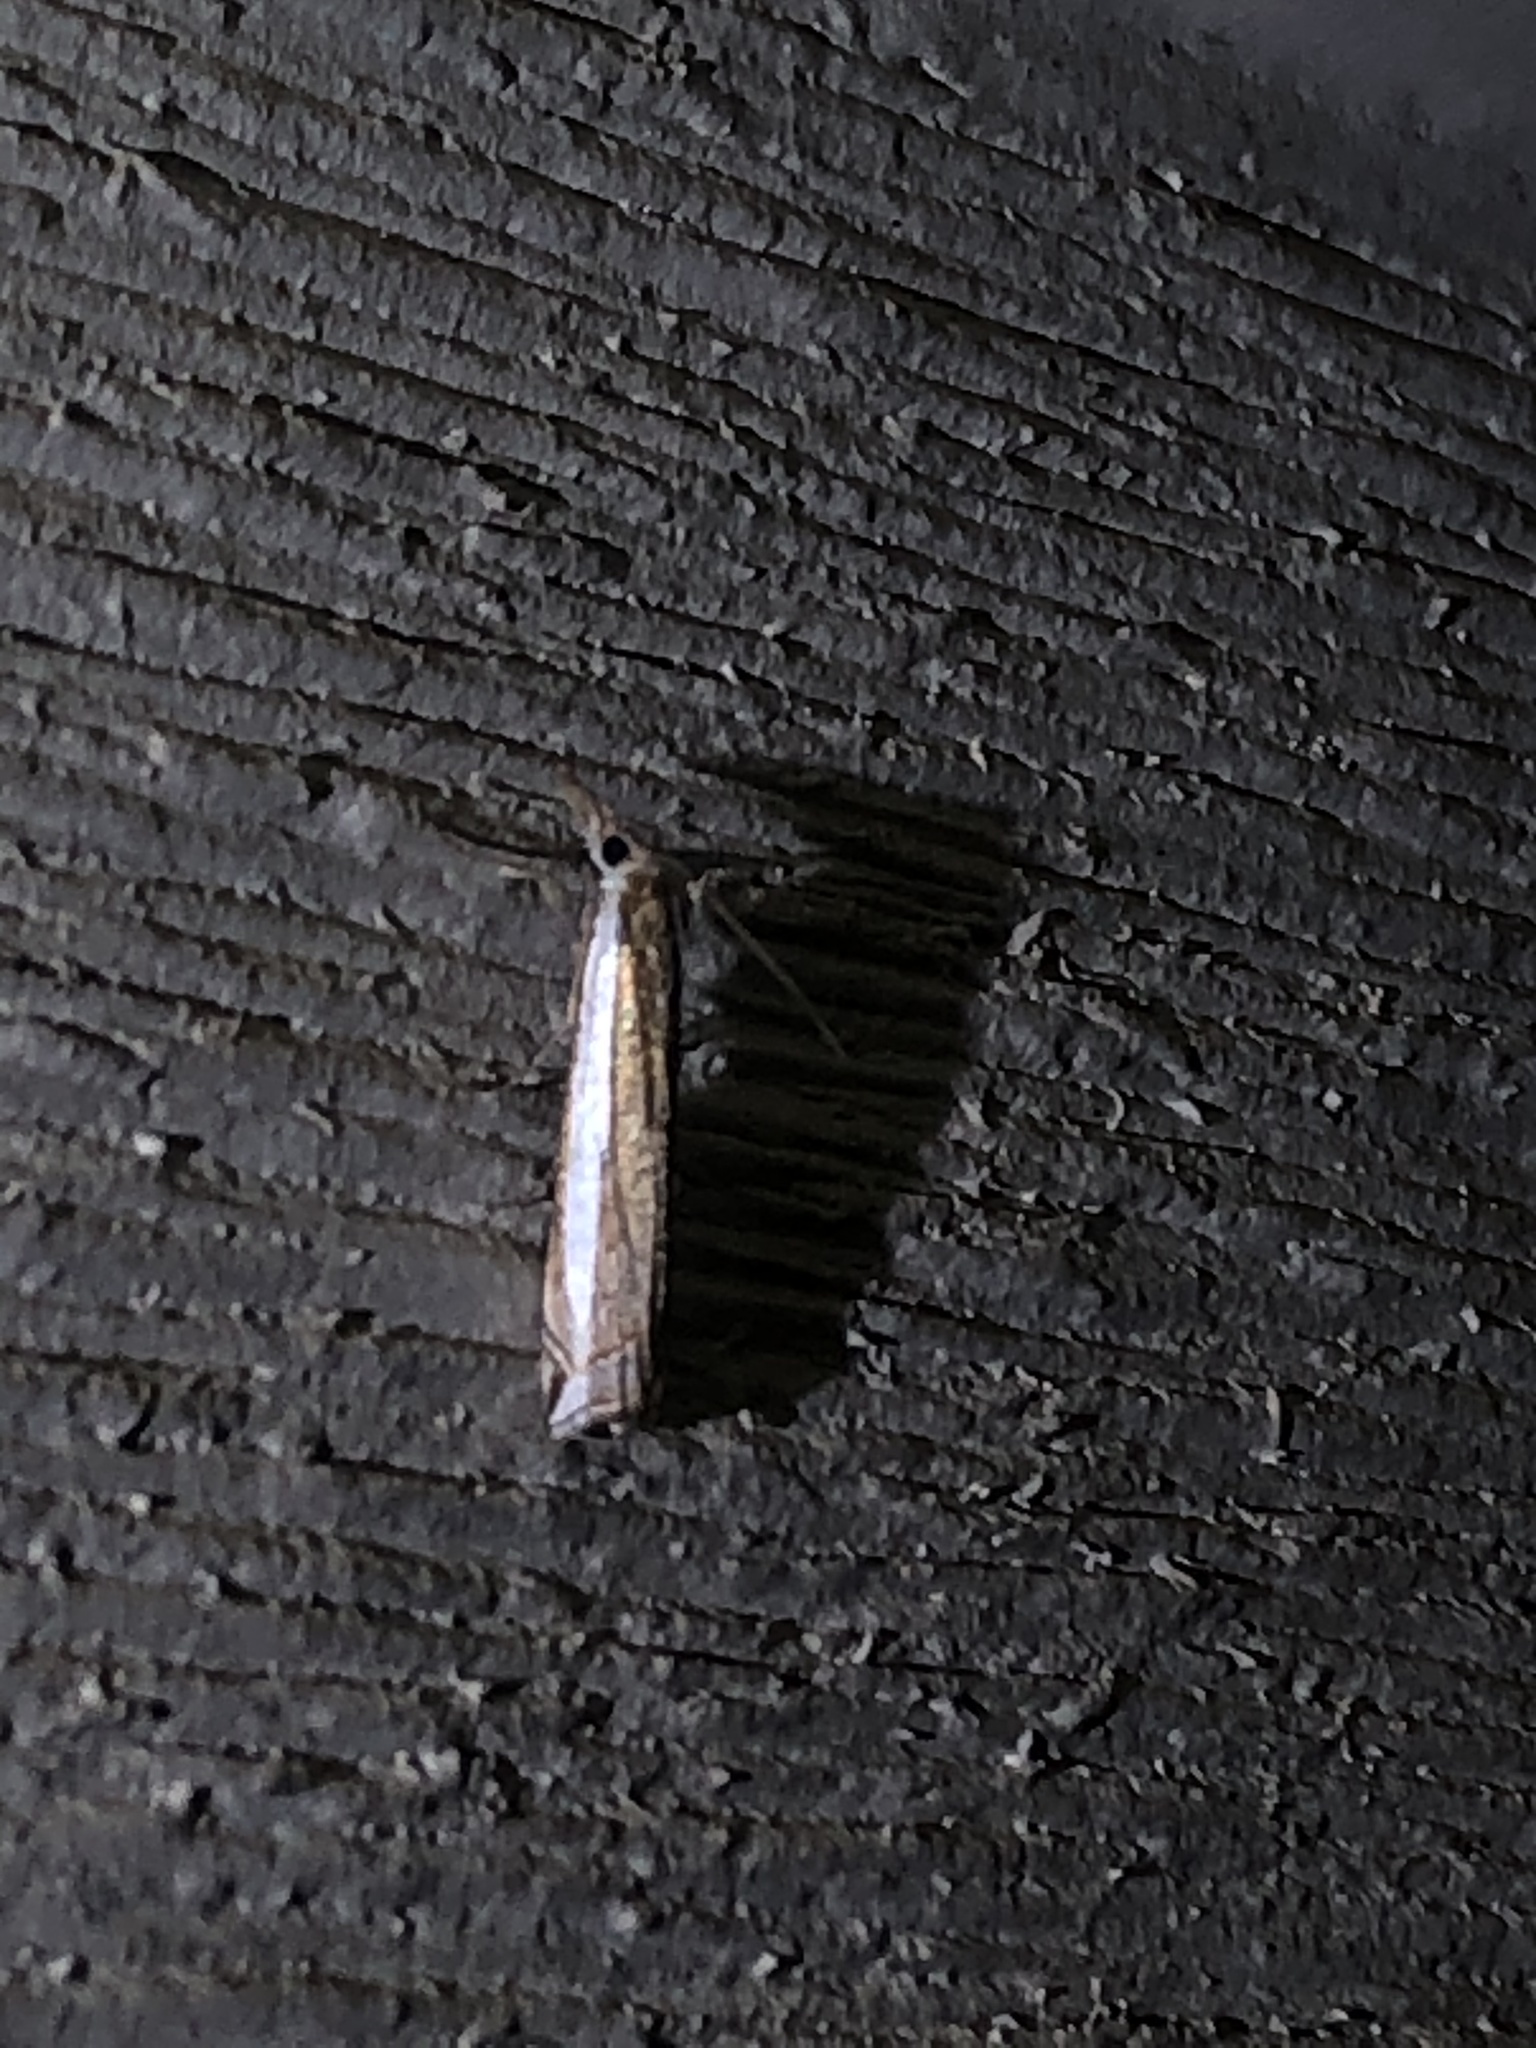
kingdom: Animalia
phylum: Arthropoda
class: Insecta
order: Lepidoptera
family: Crambidae
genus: Crambus
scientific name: Crambus sperryellus
